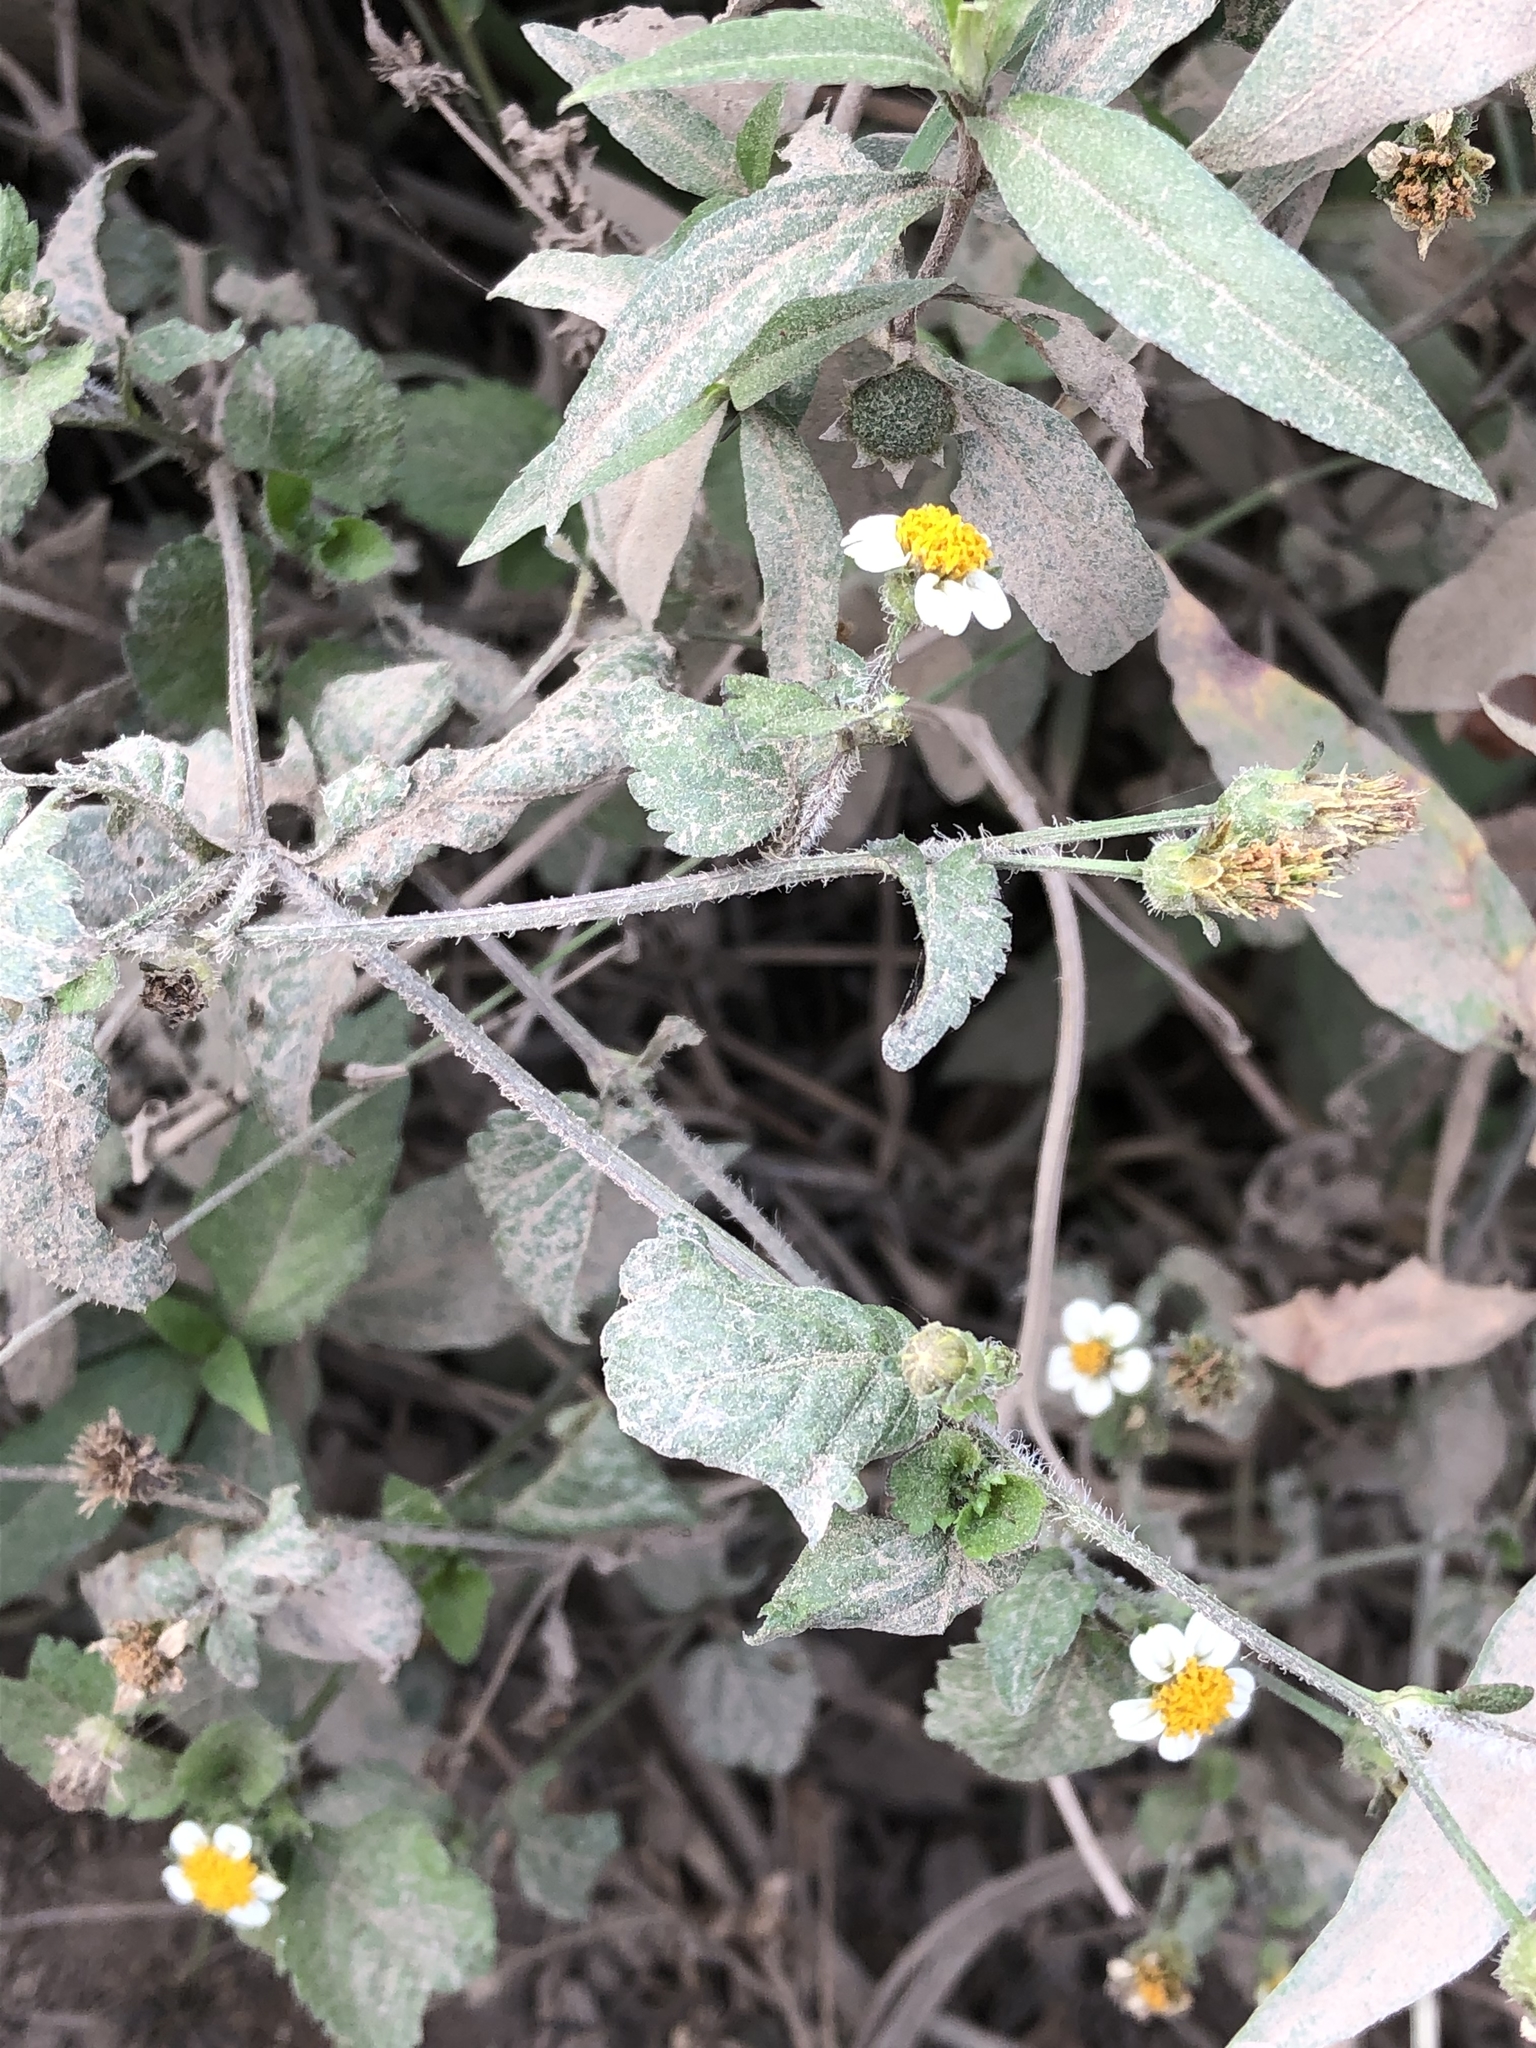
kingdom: Plantae
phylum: Tracheophyta
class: Magnoliopsida
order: Asterales
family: Asteraceae
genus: Bidens
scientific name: Bidens alba
